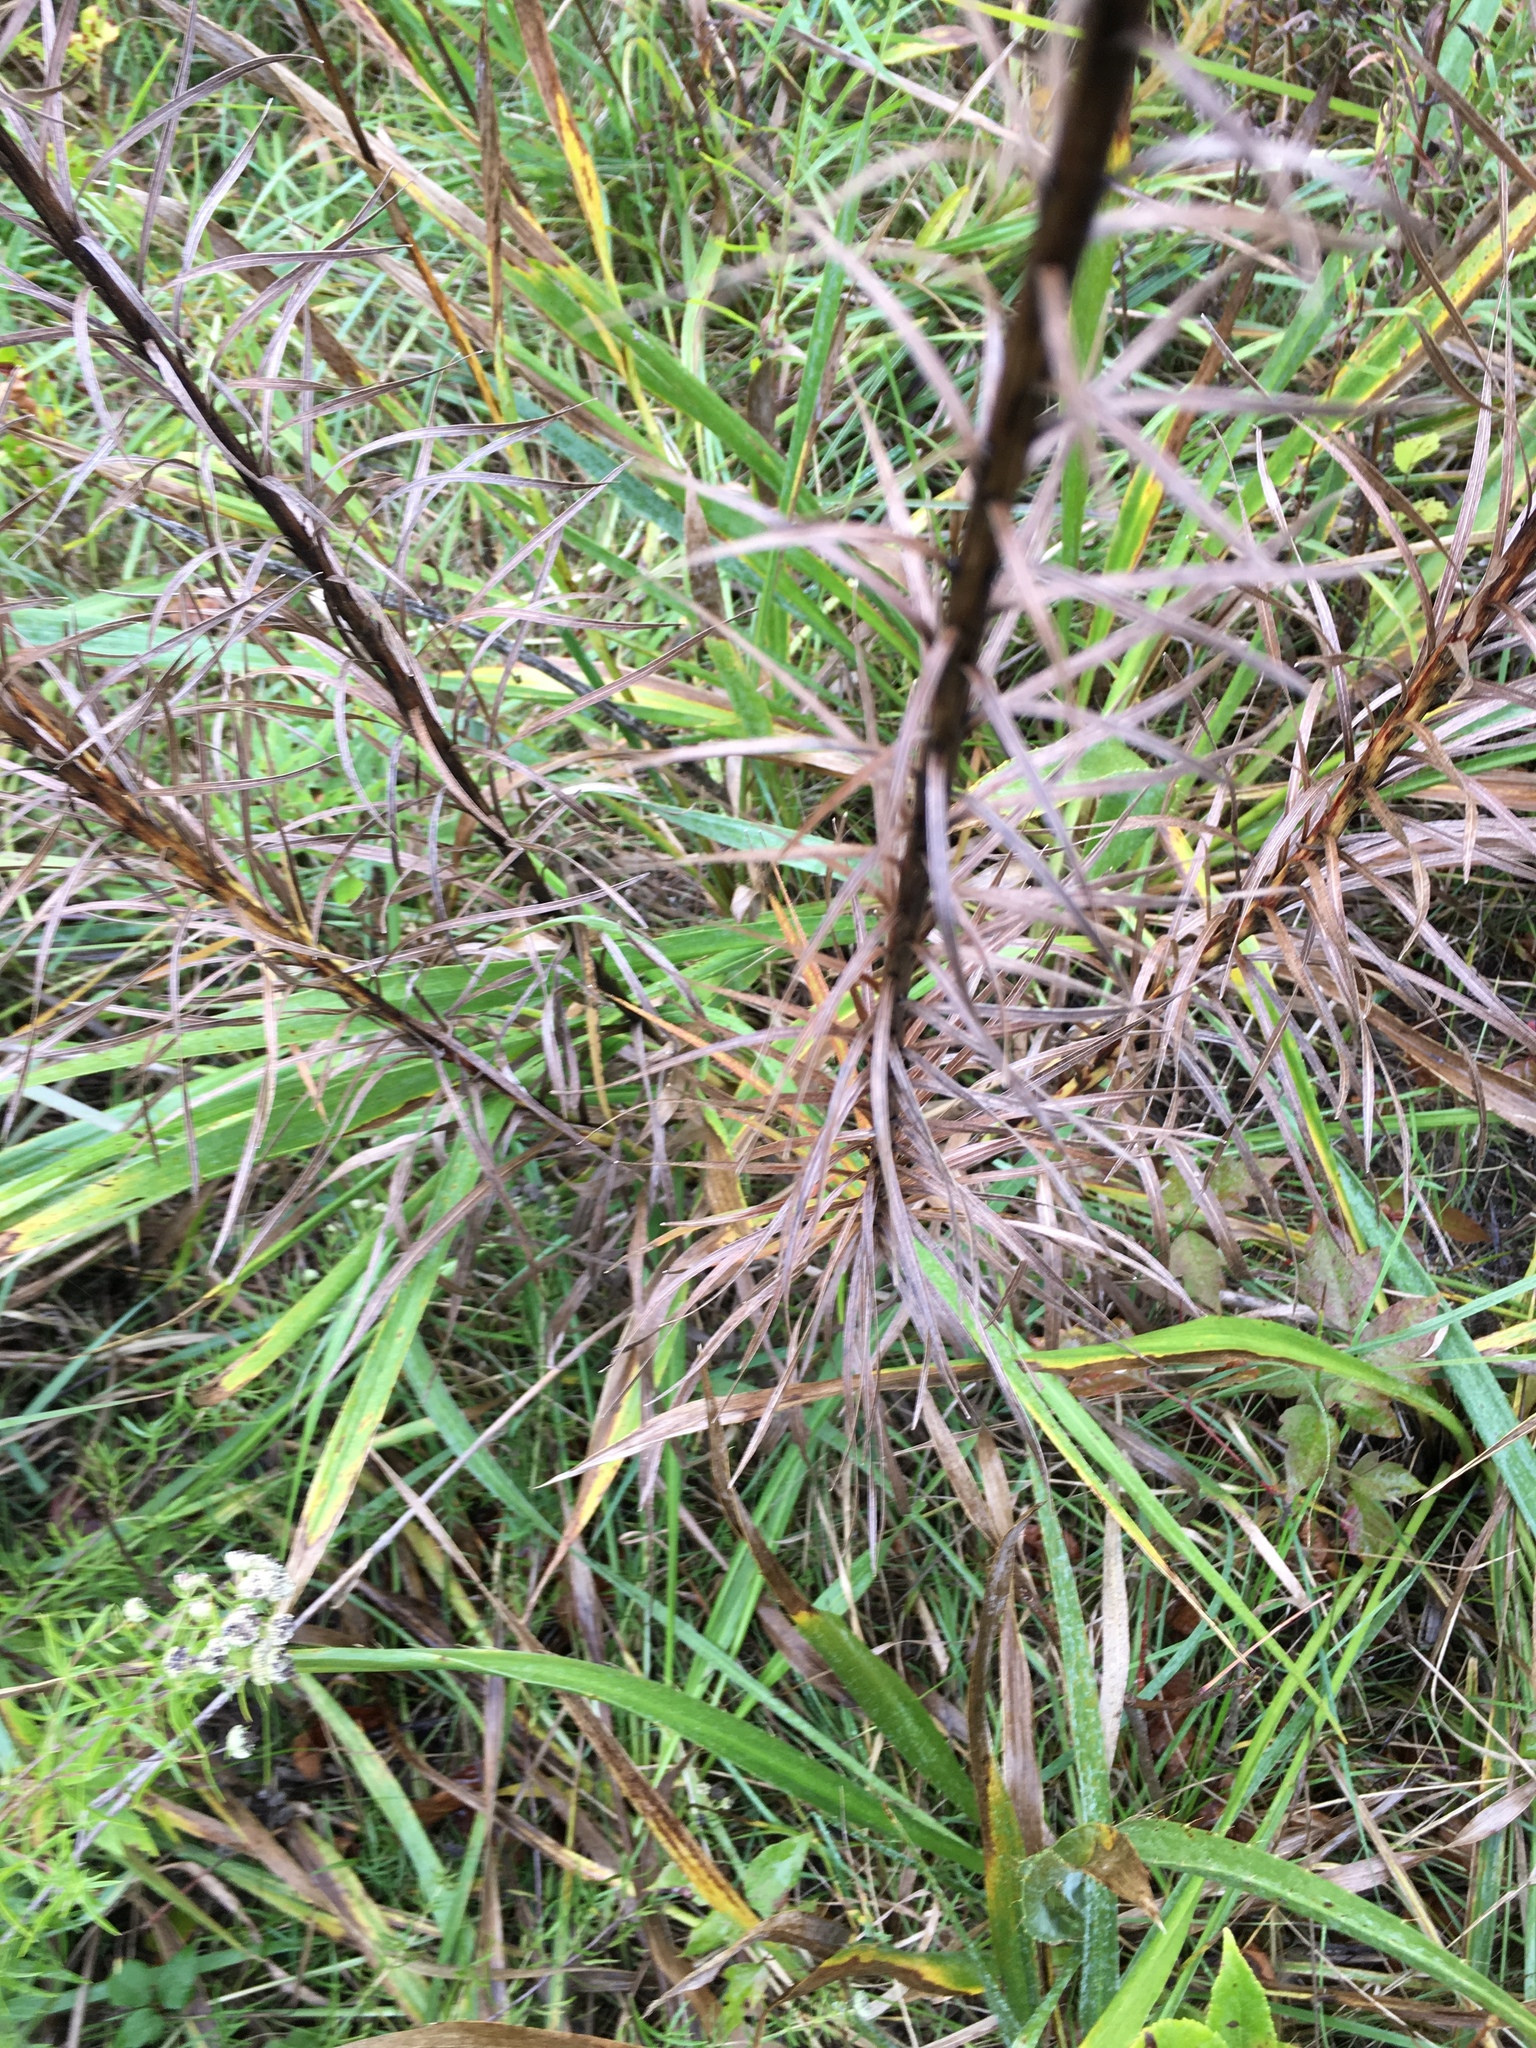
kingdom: Plantae
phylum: Tracheophyta
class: Magnoliopsida
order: Asterales
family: Asteraceae
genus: Liatris
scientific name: Liatris spicata
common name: Florist gayfeather
